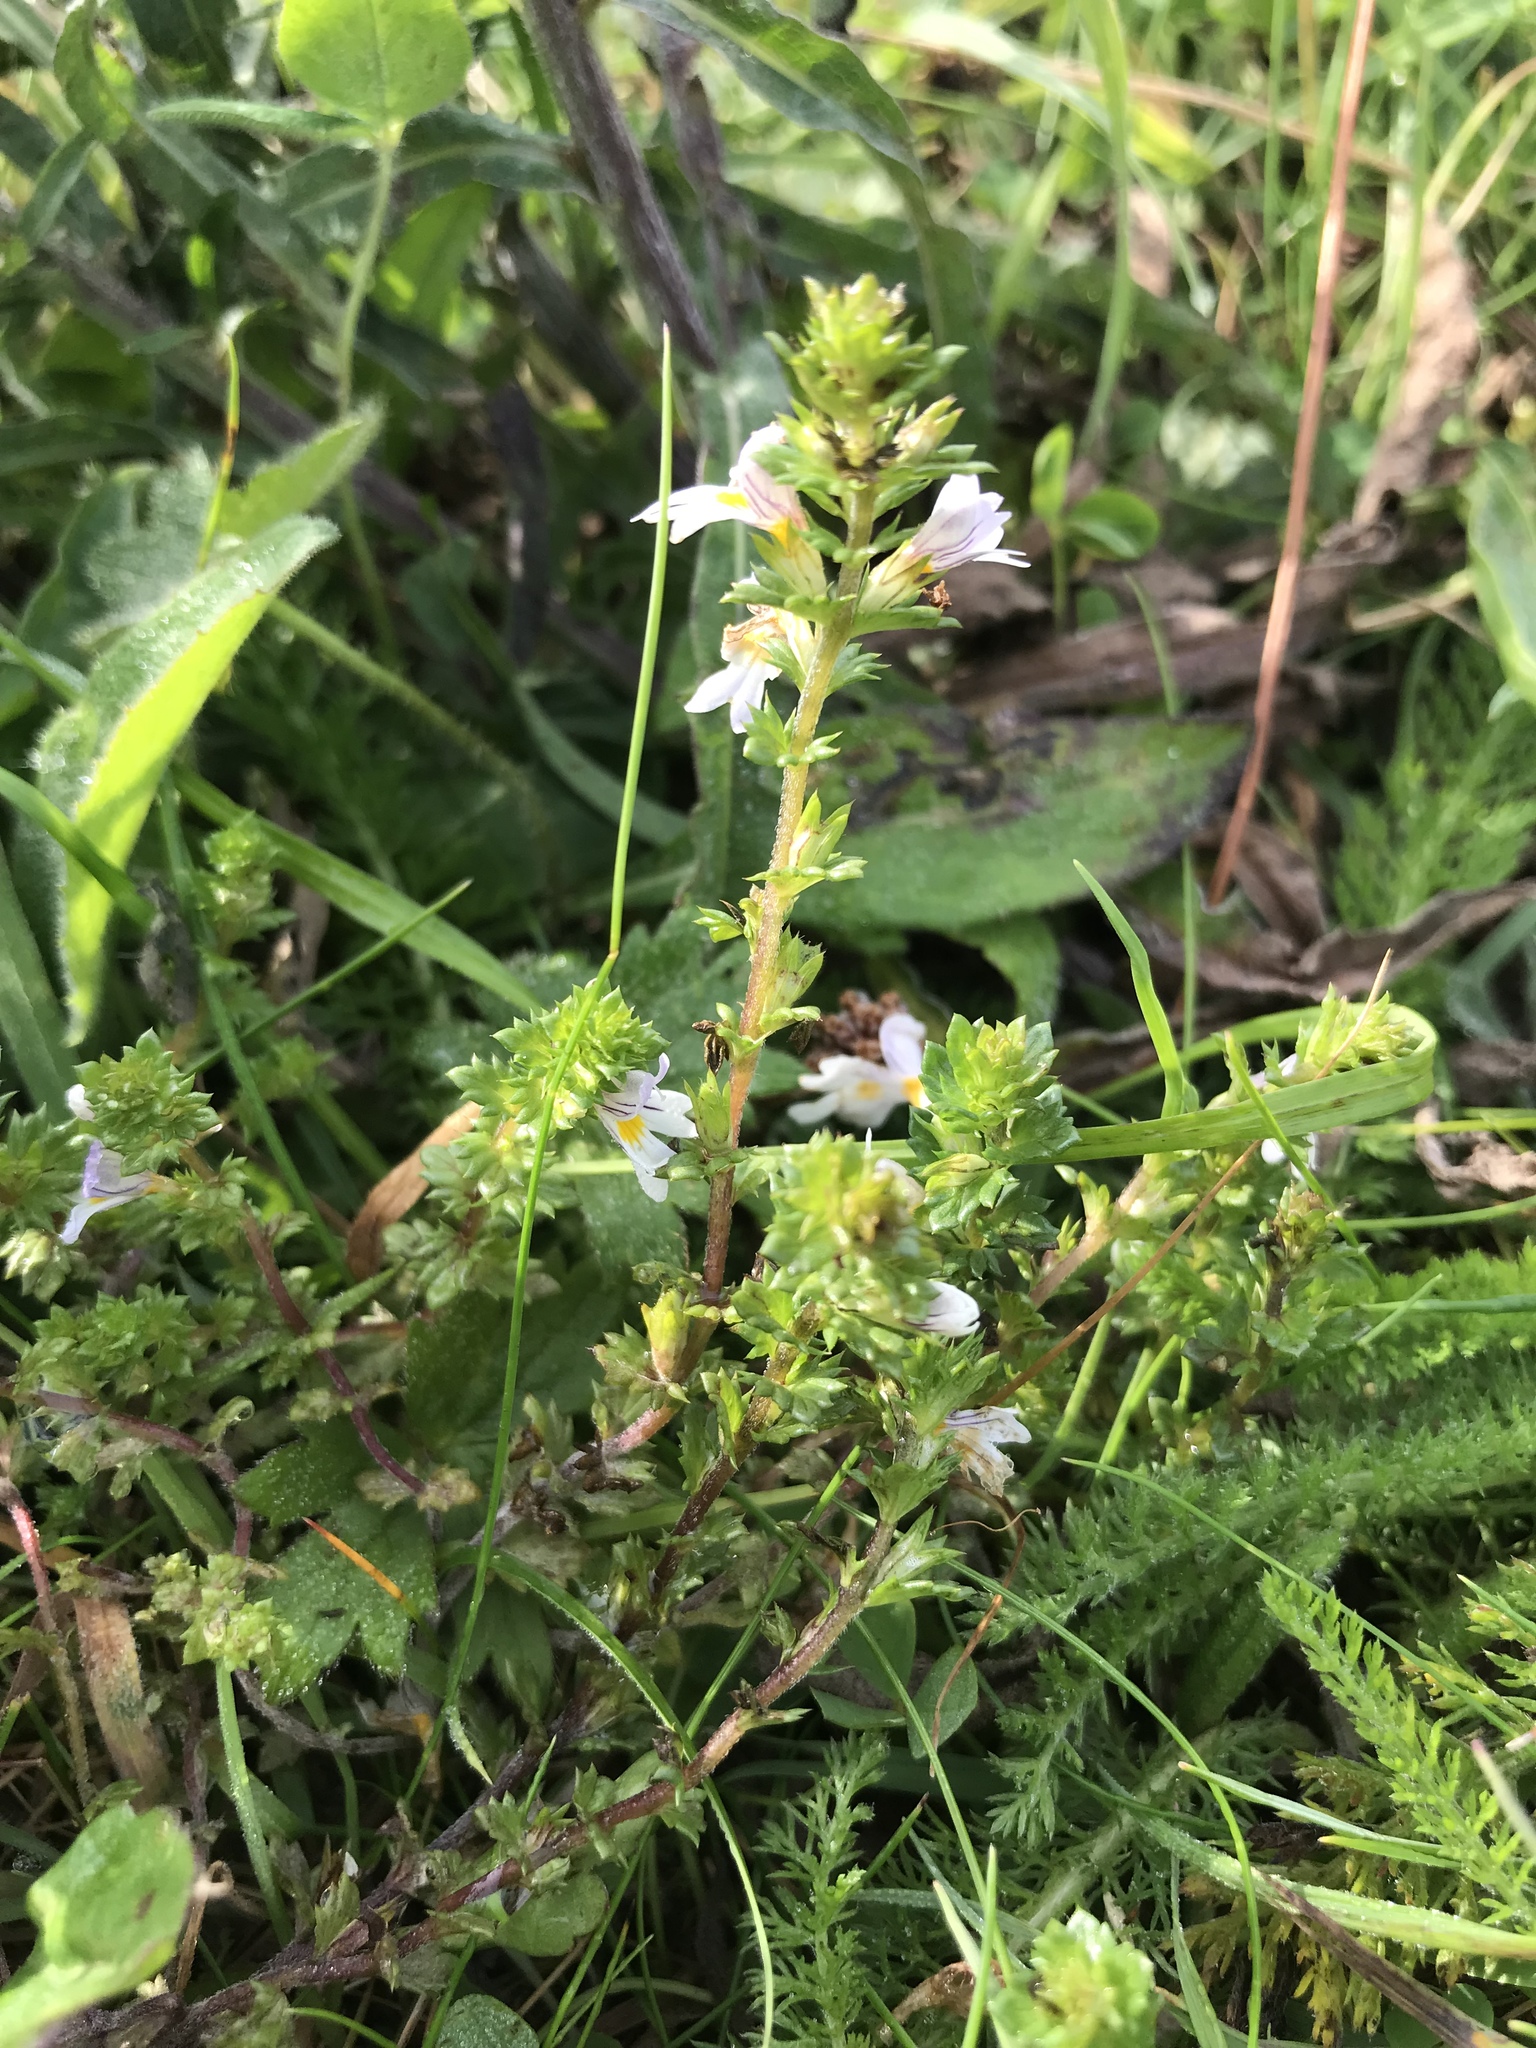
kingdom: Plantae
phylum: Tracheophyta
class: Magnoliopsida
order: Lamiales
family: Orobanchaceae
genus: Euphrasia
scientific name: Euphrasia nemorosa
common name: Common eyebright
